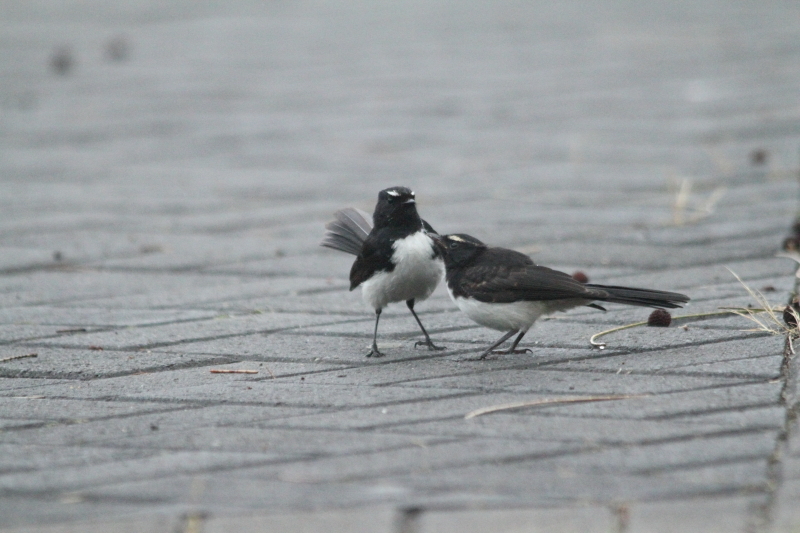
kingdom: Animalia
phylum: Chordata
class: Aves
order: Passeriformes
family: Rhipiduridae
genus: Rhipidura
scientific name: Rhipidura leucophrys
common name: Willie wagtail
